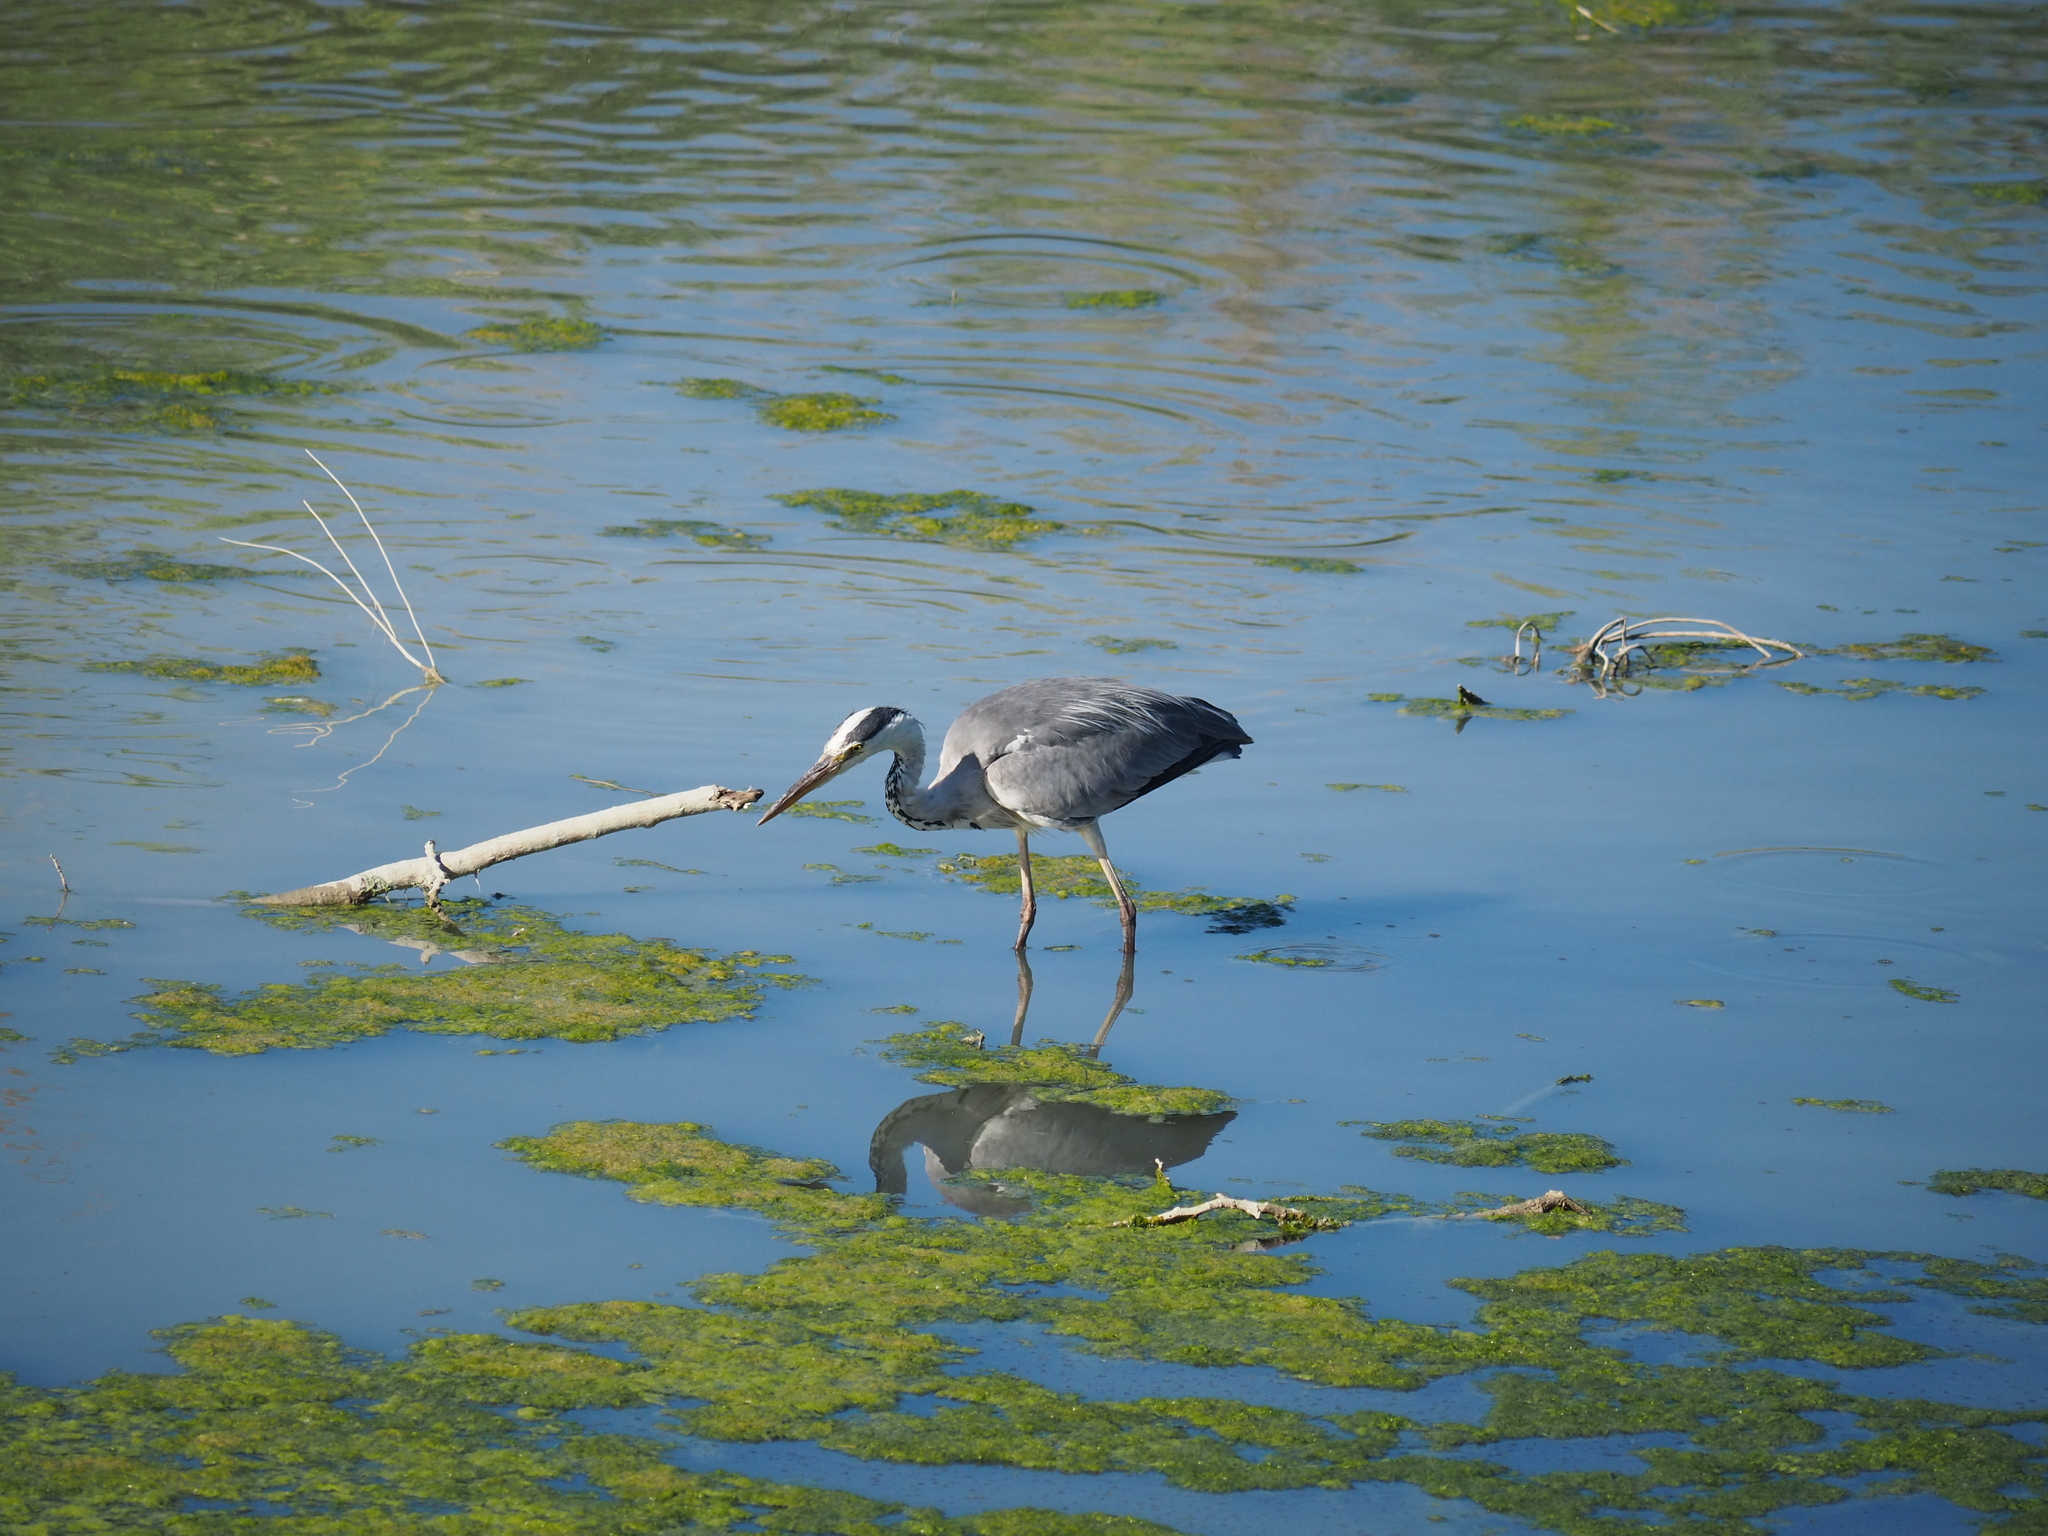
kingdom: Animalia
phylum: Chordata
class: Aves
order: Pelecaniformes
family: Ardeidae
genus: Ardea
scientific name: Ardea cinerea
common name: Grey heron
